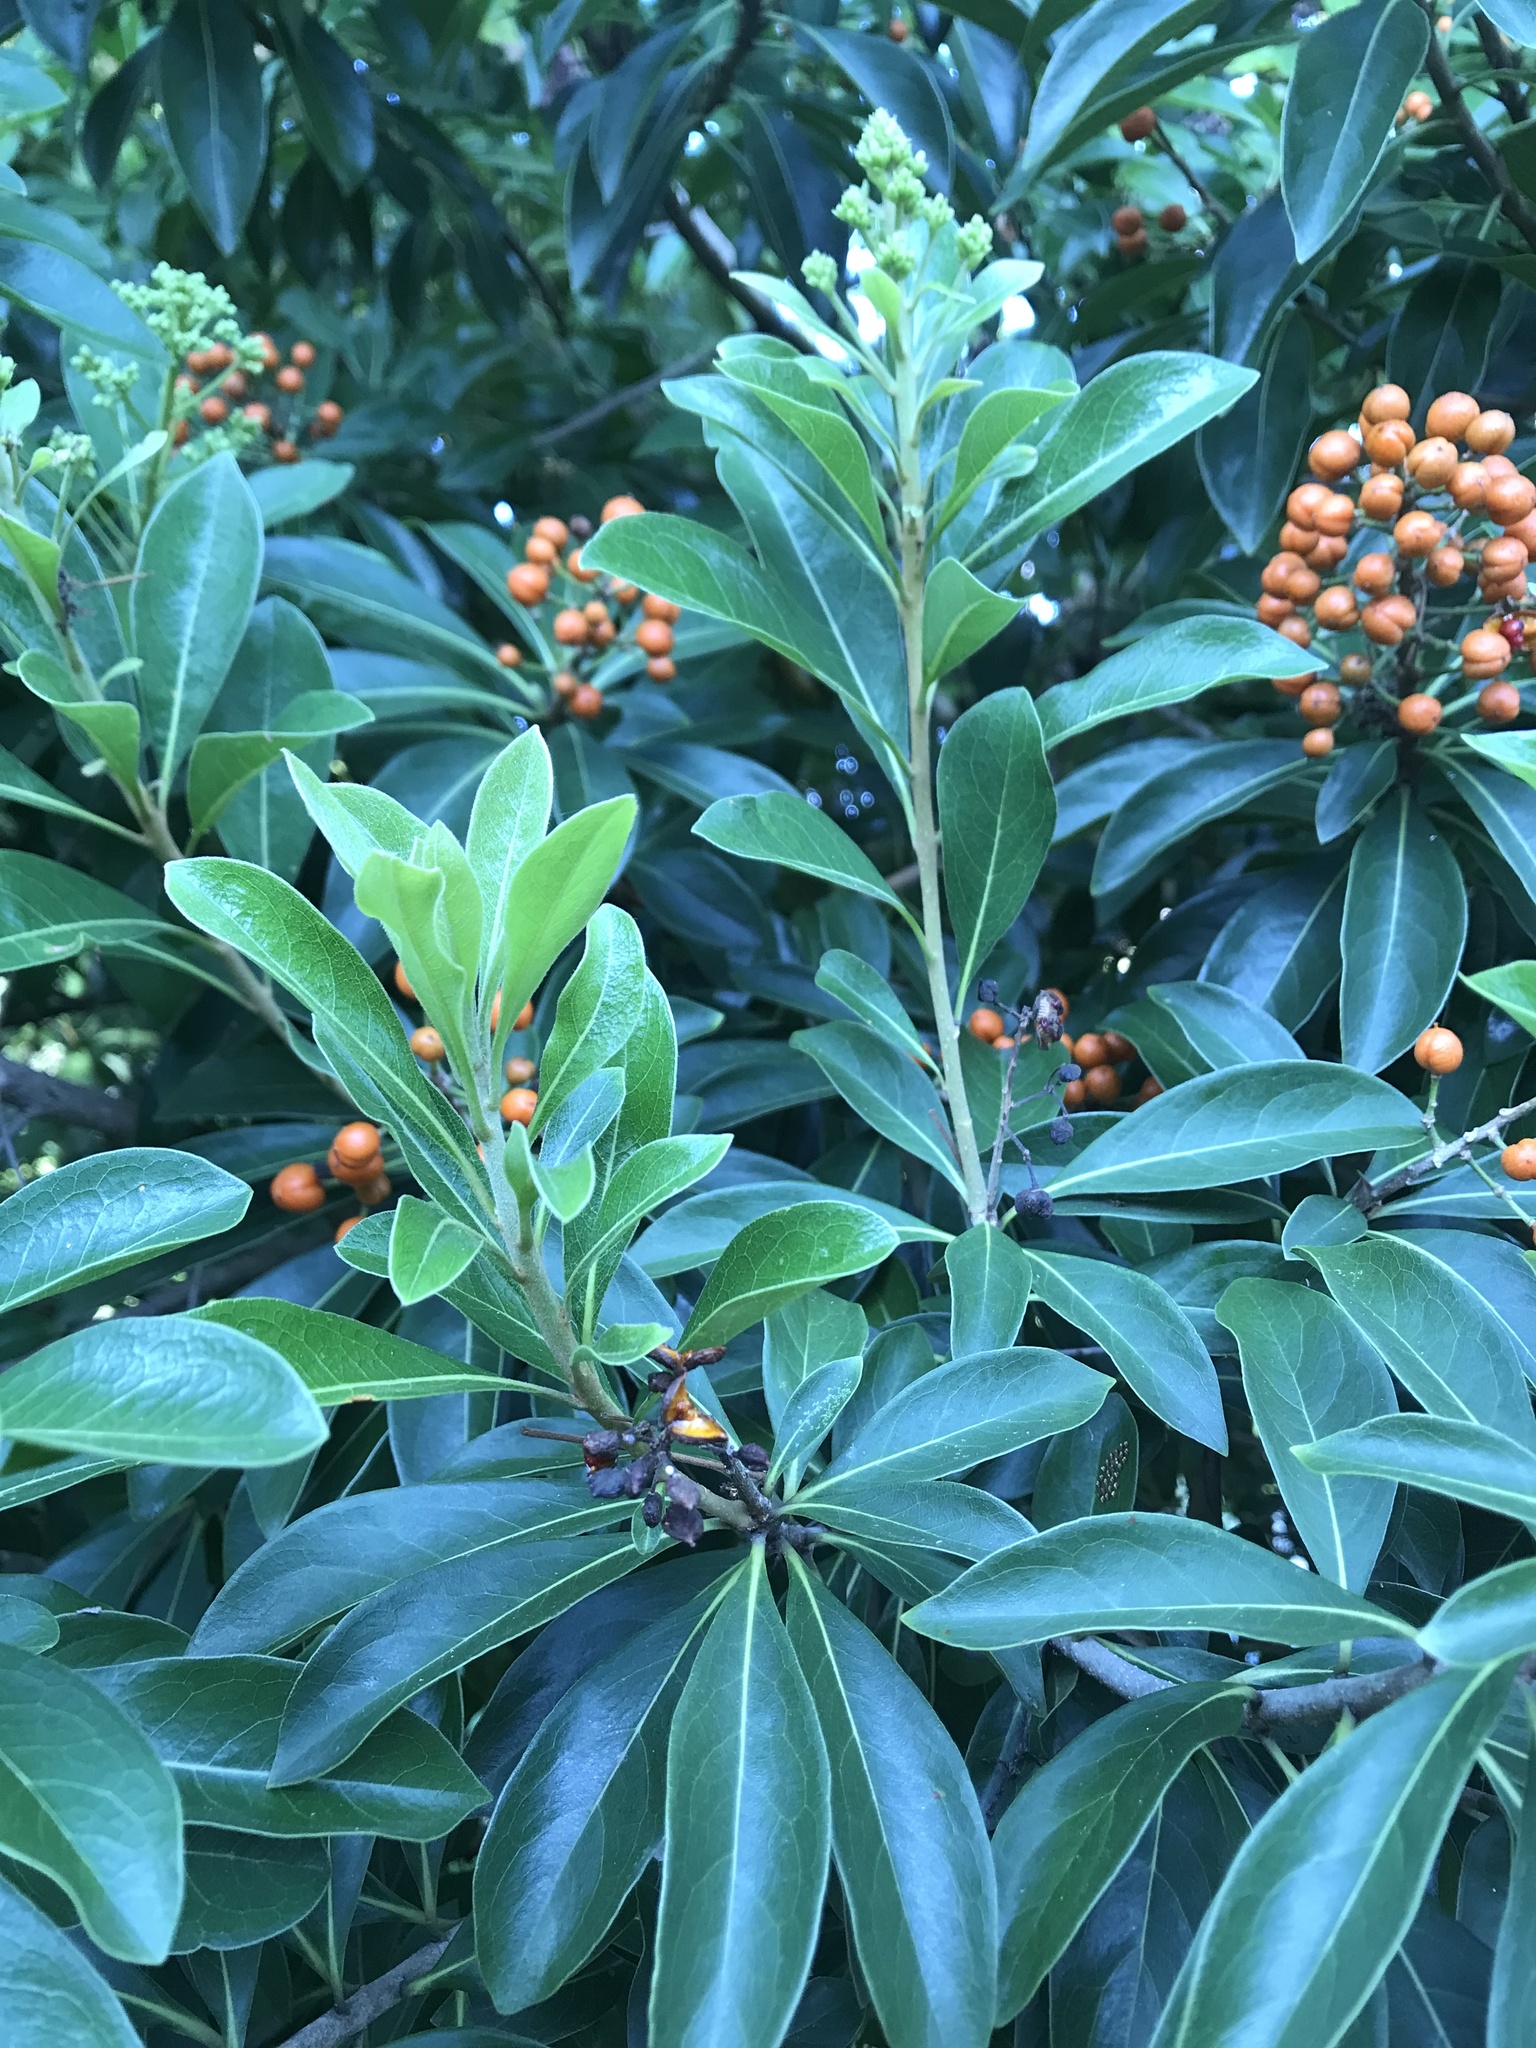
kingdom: Plantae
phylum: Tracheophyta
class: Magnoliopsida
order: Apiales
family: Pittosporaceae
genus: Pittosporum
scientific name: Pittosporum pentandrum
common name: Taiwanese cheesewood
